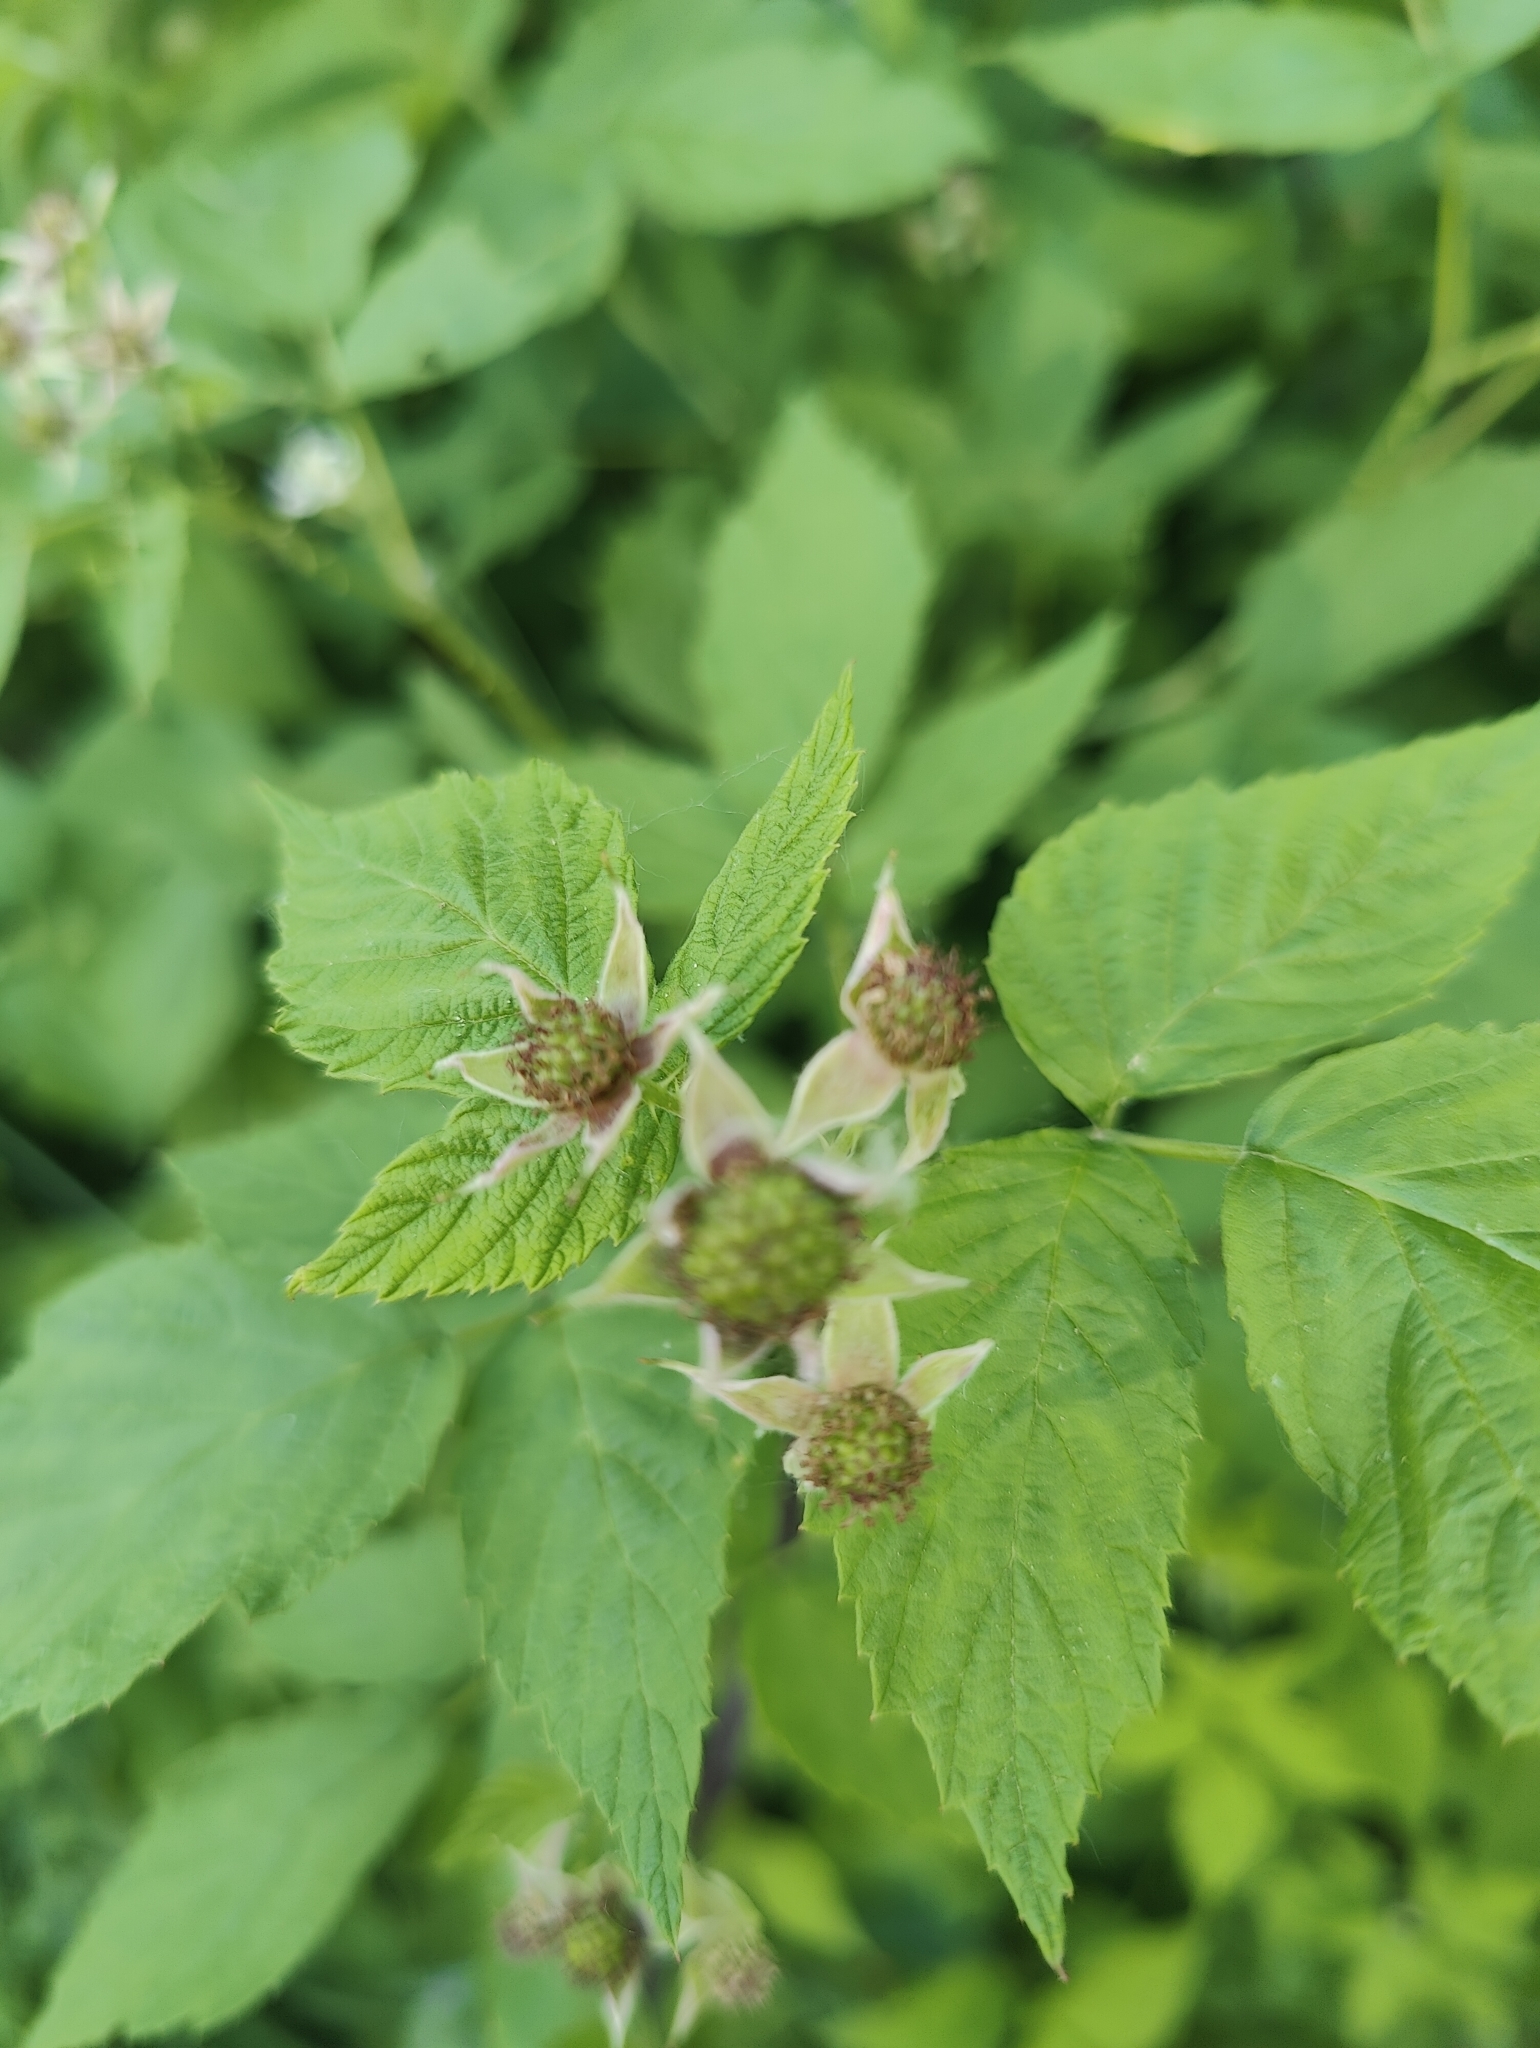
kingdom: Plantae
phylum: Tracheophyta
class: Magnoliopsida
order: Rosales
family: Rosaceae
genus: Rubus
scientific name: Rubus occidentalis
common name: Black raspberry
